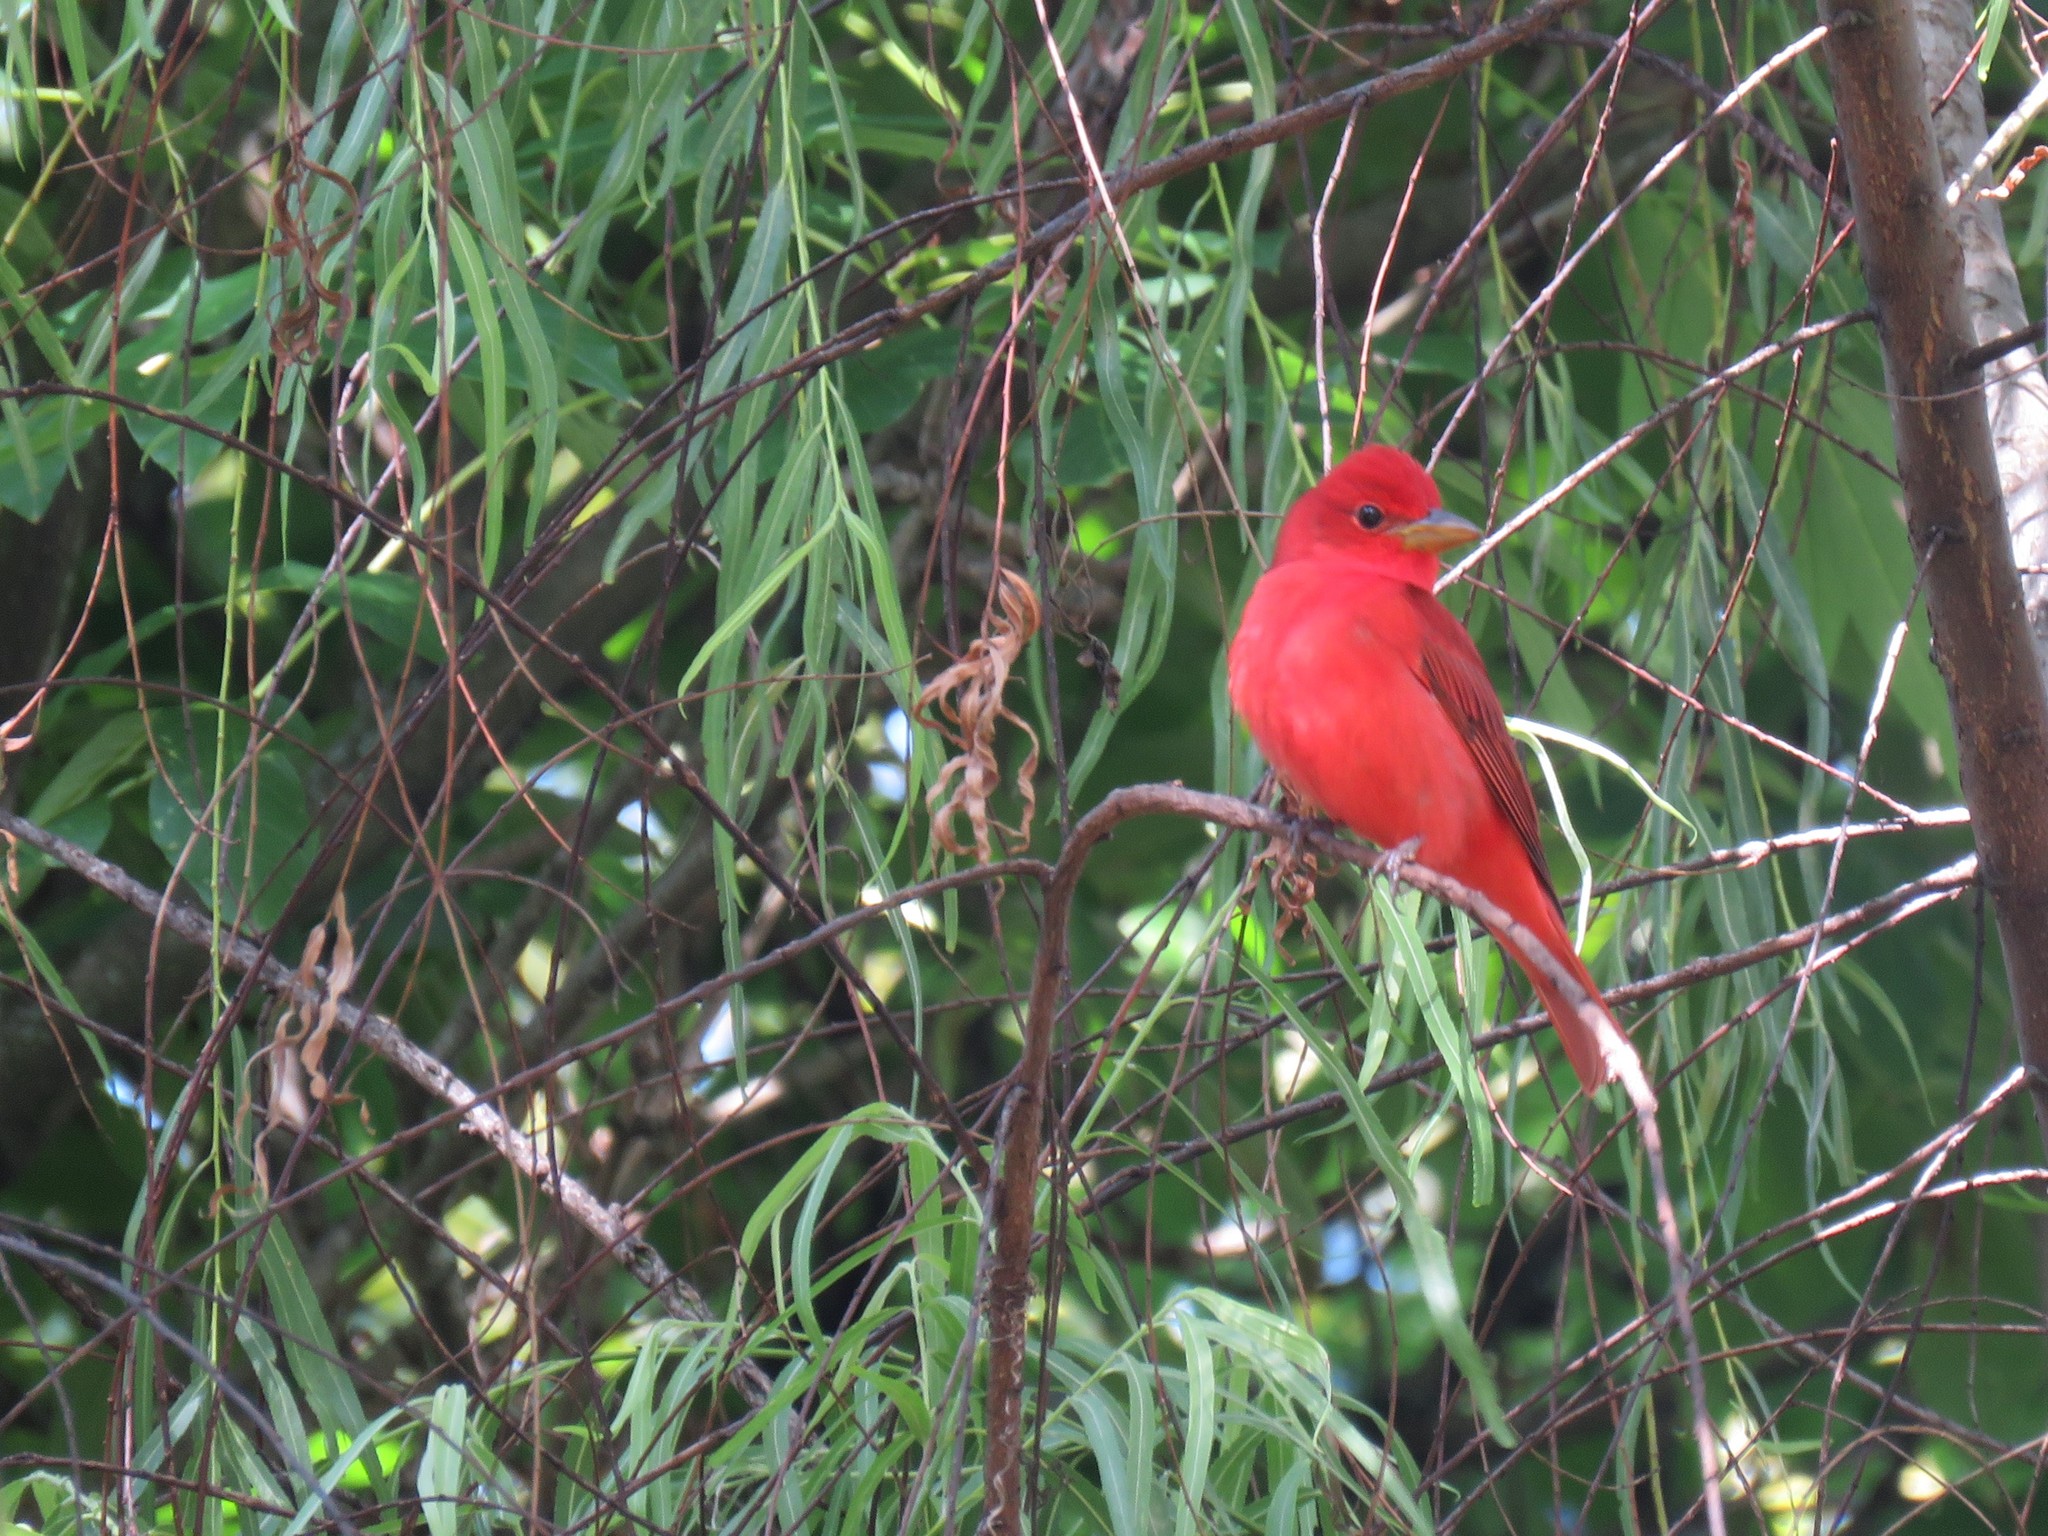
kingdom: Animalia
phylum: Chordata
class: Aves
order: Passeriformes
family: Cardinalidae
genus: Piranga
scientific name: Piranga rubra
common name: Summer tanager
